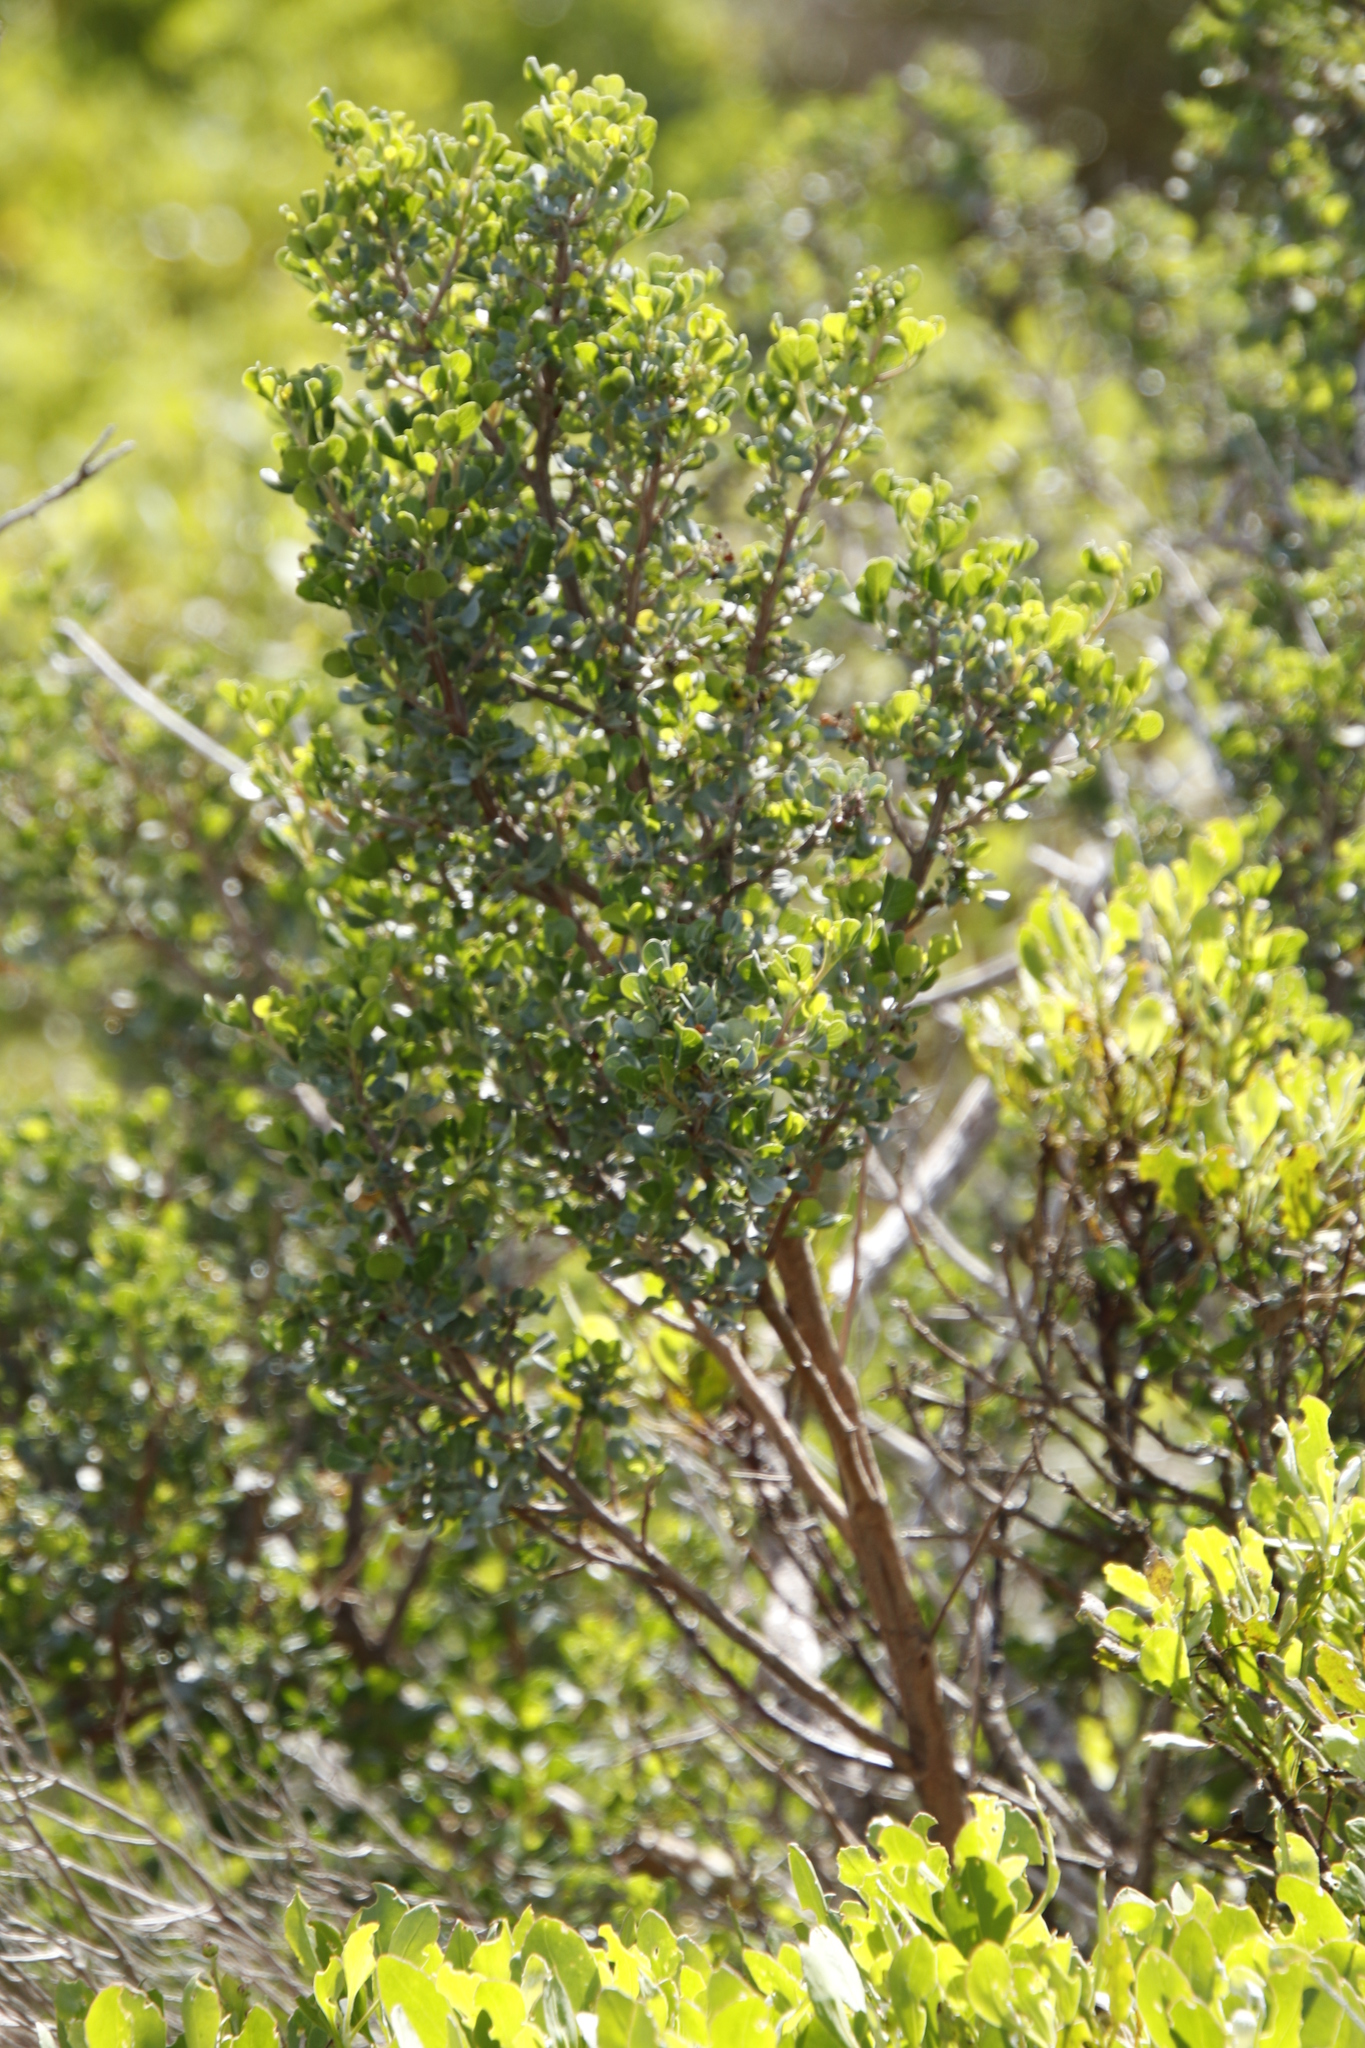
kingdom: Plantae
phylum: Tracheophyta
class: Magnoliopsida
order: Sapindales
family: Anacardiaceae
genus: Searsia
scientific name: Searsia glauca
